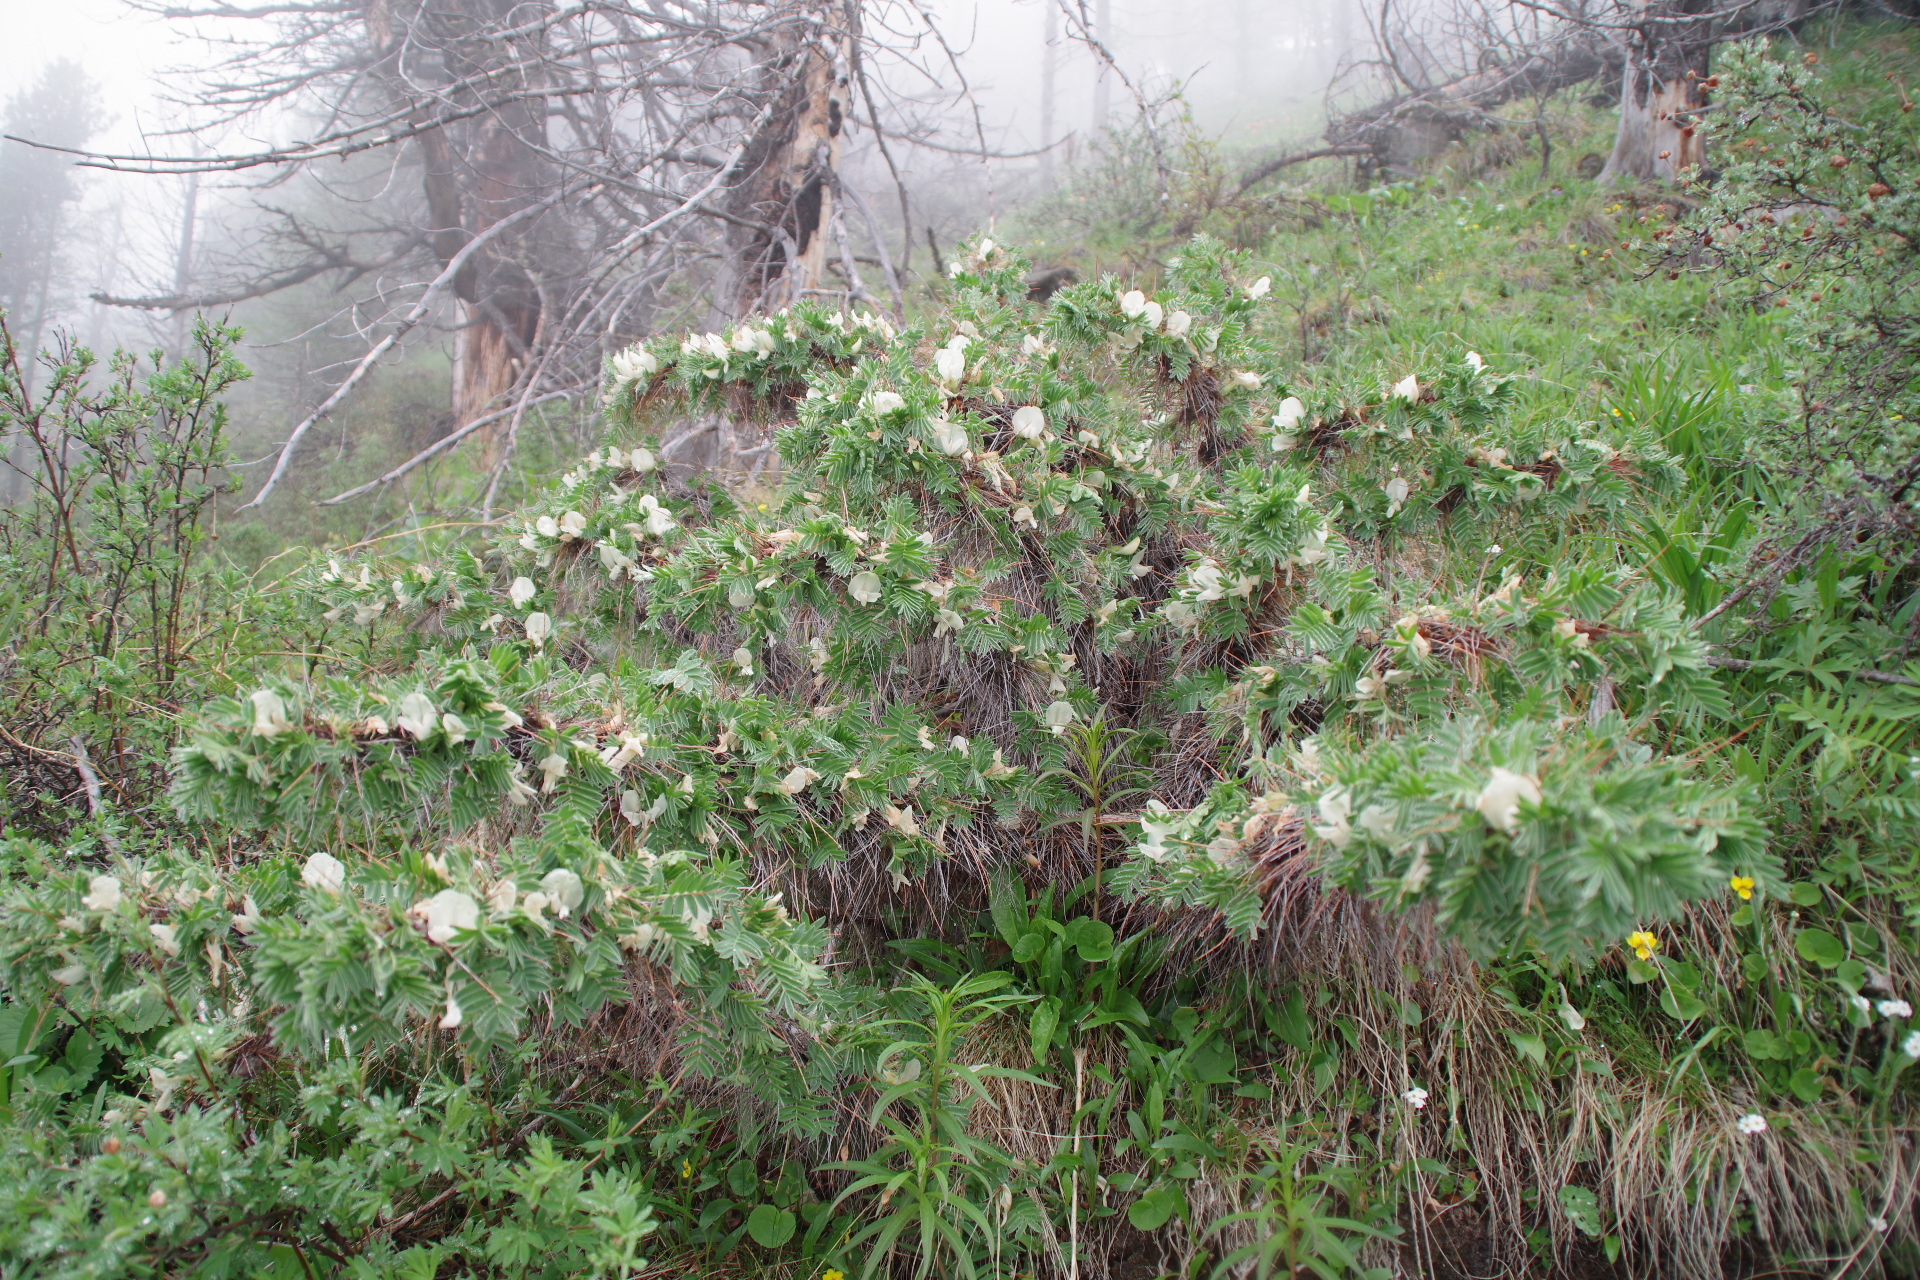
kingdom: Plantae
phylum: Tracheophyta
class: Magnoliopsida
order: Fabales
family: Fabaceae
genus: Caragana
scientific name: Caragana jubata
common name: Shag-spine peashrub
